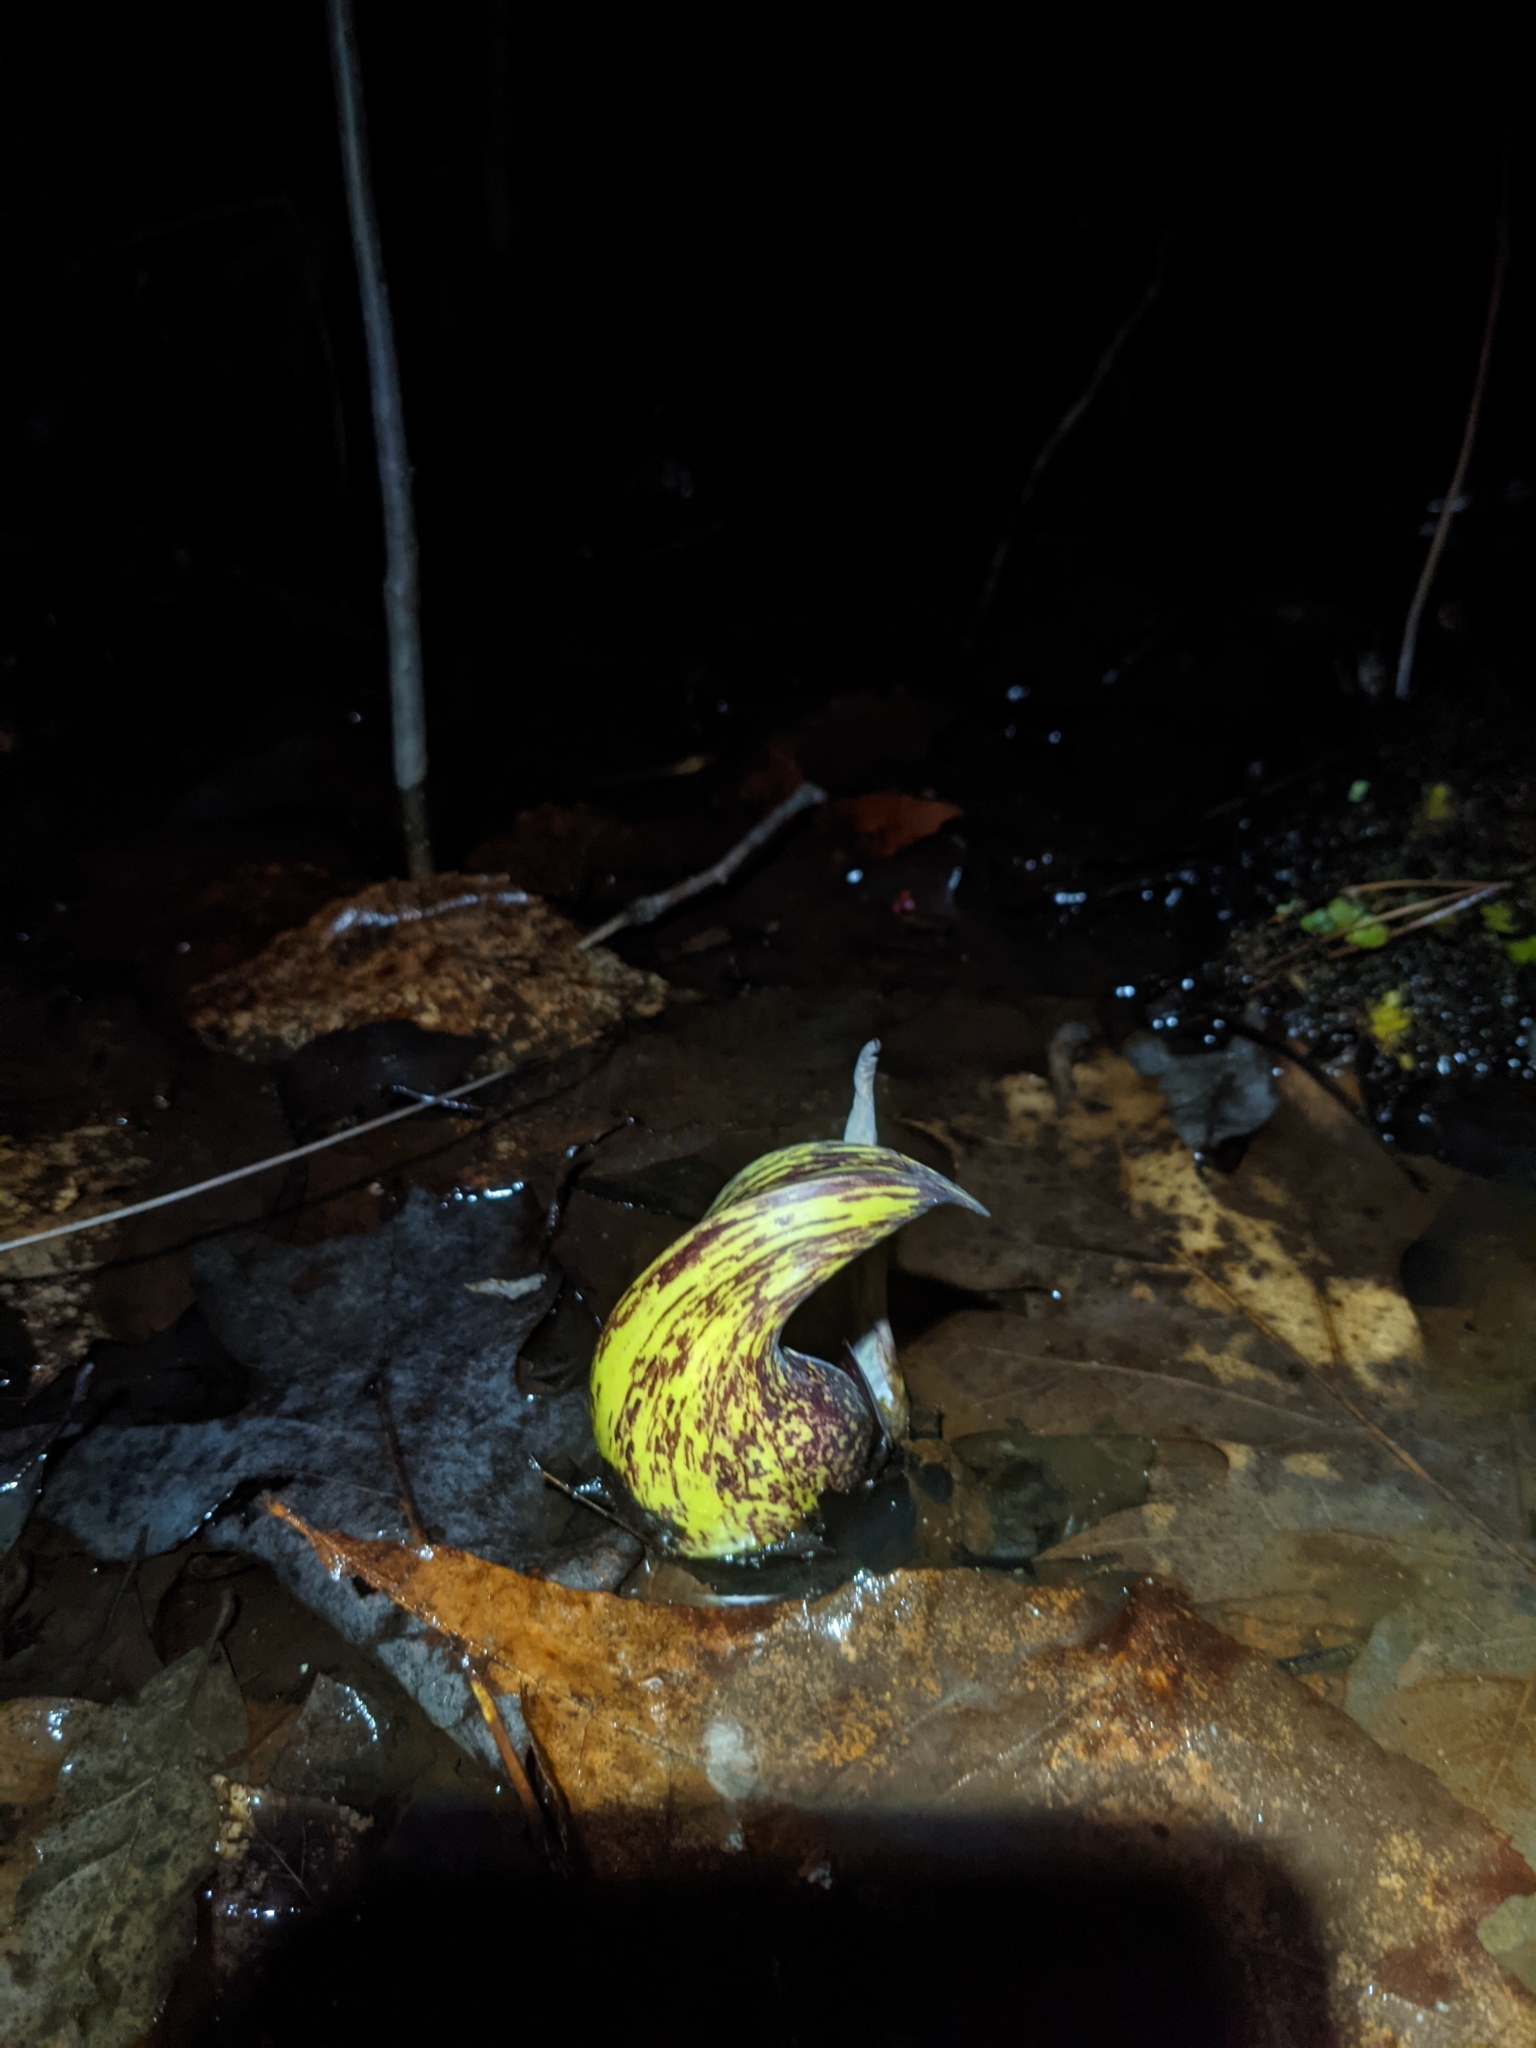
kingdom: Plantae
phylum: Tracheophyta
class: Liliopsida
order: Alismatales
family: Araceae
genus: Symplocarpus
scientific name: Symplocarpus foetidus
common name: Eastern skunk cabbage
